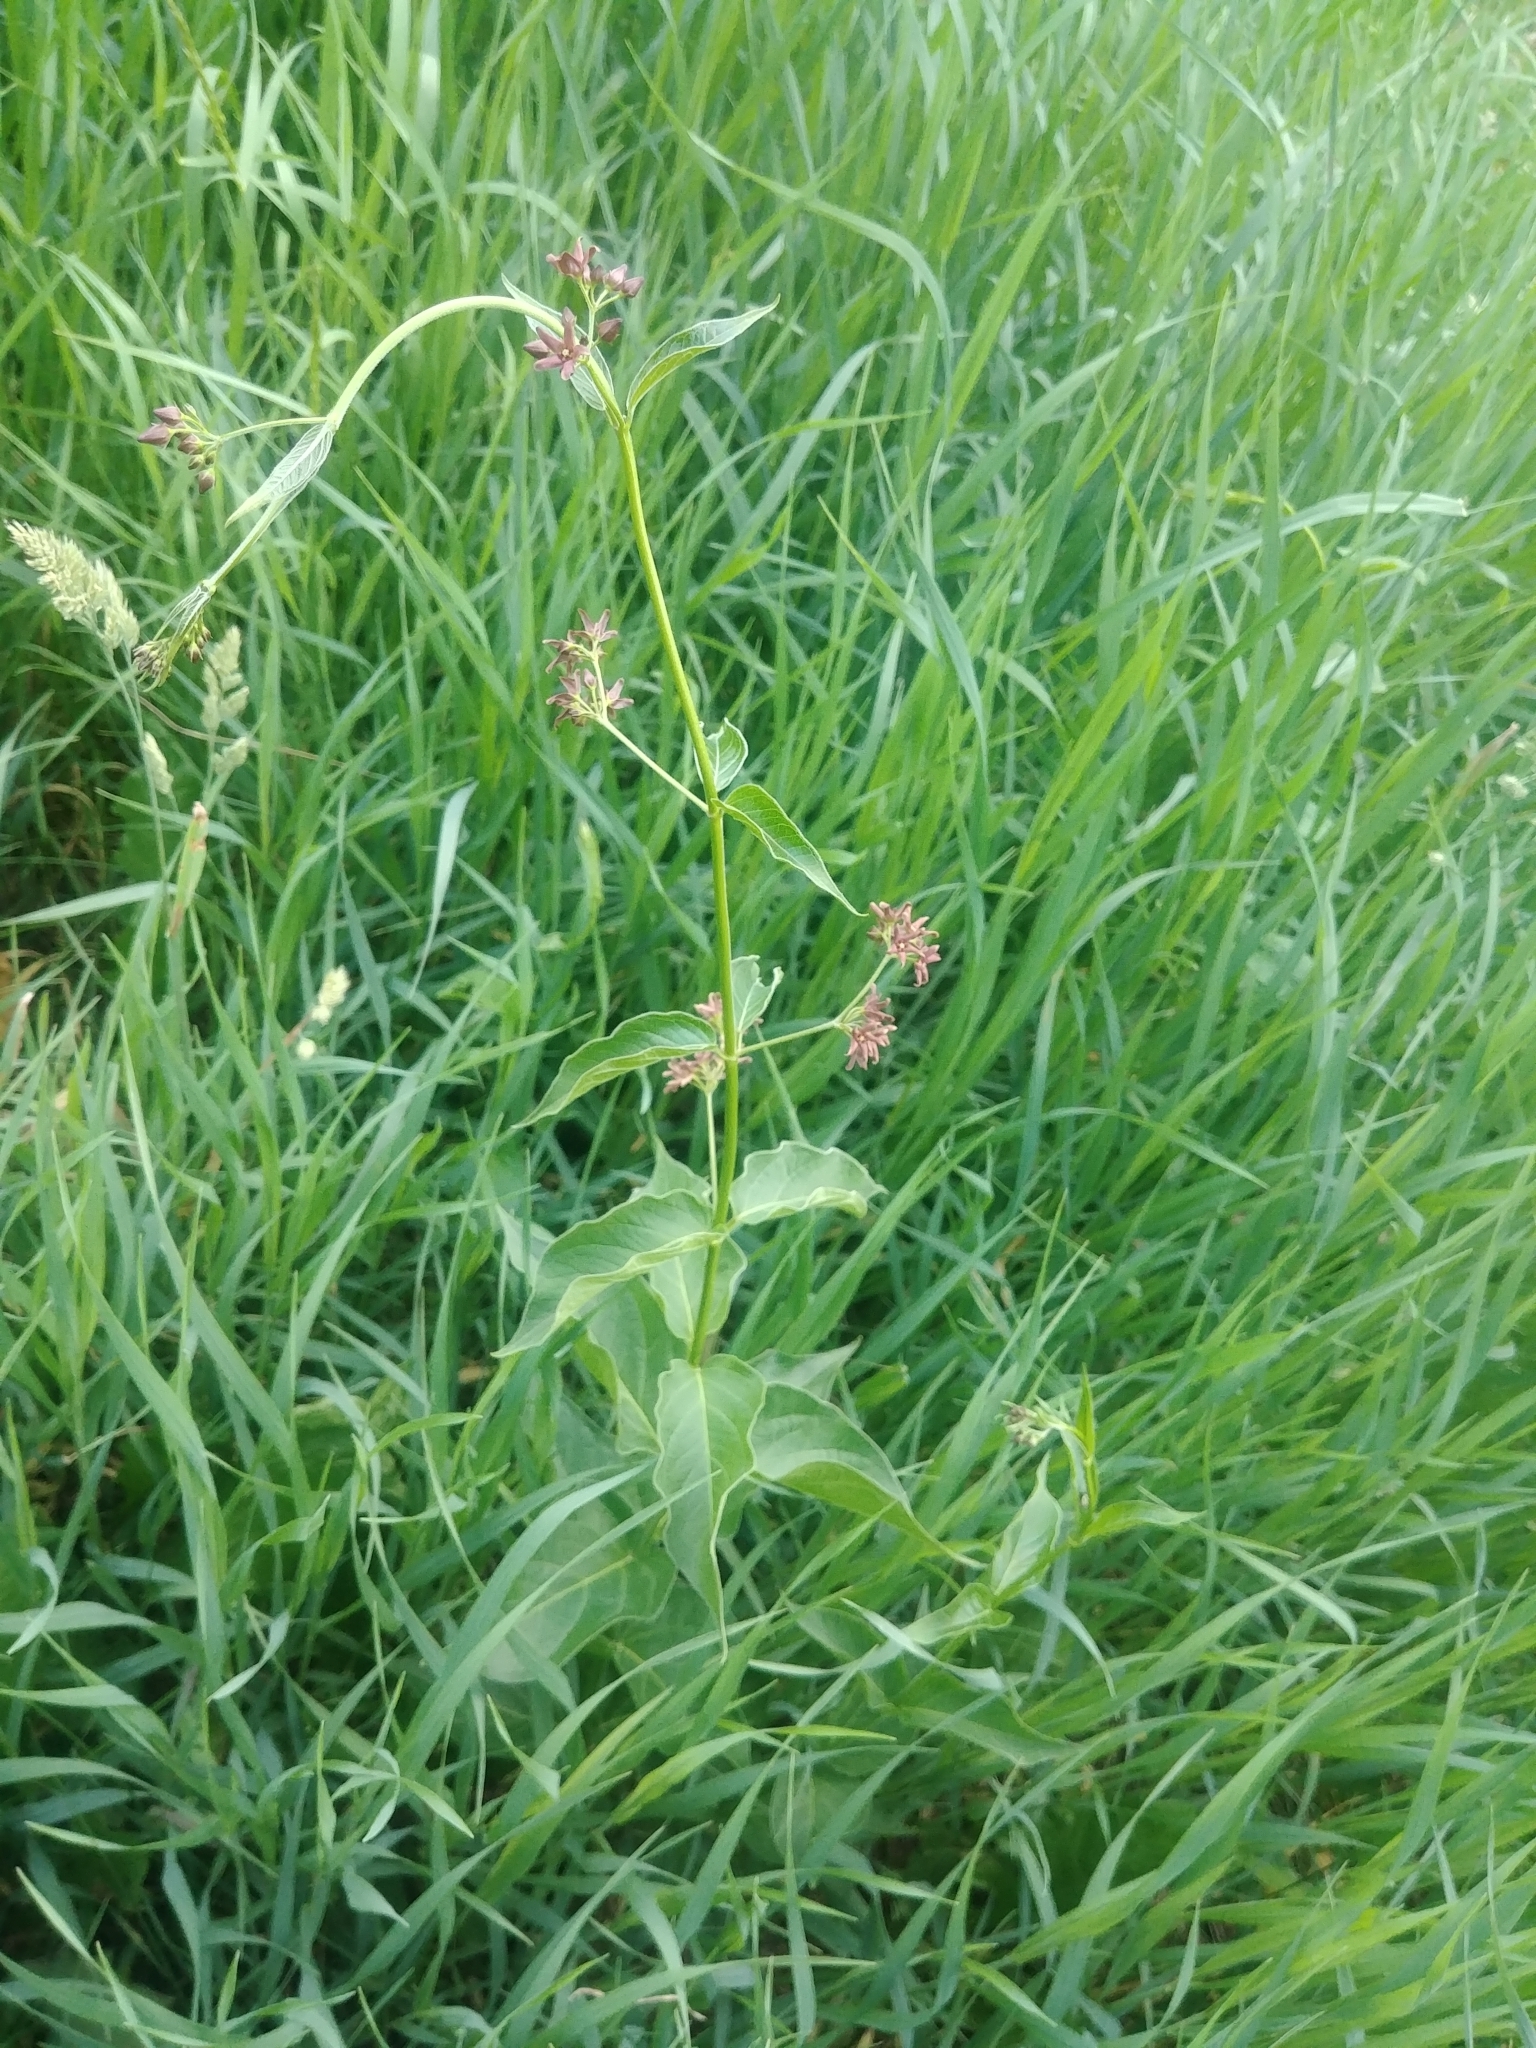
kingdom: Plantae
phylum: Tracheophyta
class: Magnoliopsida
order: Gentianales
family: Apocynaceae
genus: Vincetoxicum
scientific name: Vincetoxicum rossicum
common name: Dog-strangling vine
